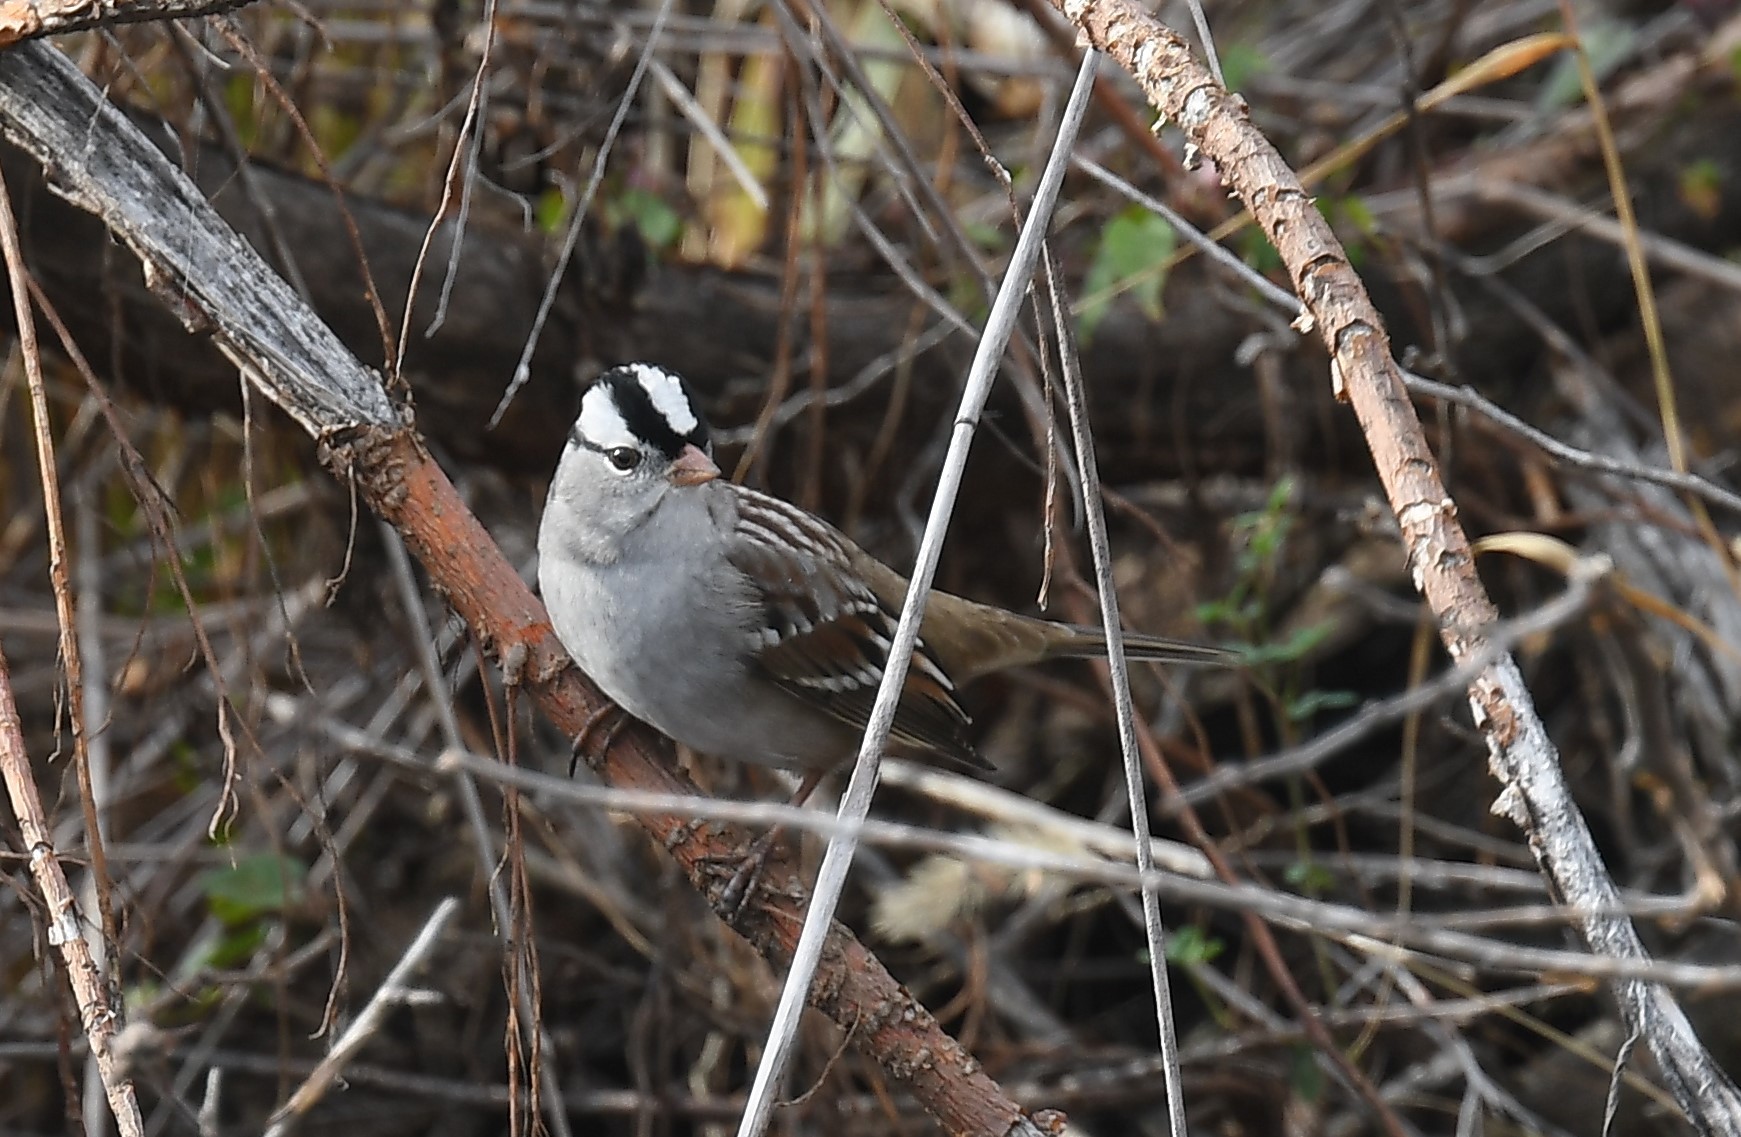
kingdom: Animalia
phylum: Chordata
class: Aves
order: Passeriformes
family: Passerellidae
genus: Zonotrichia
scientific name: Zonotrichia leucophrys
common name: White-crowned sparrow
